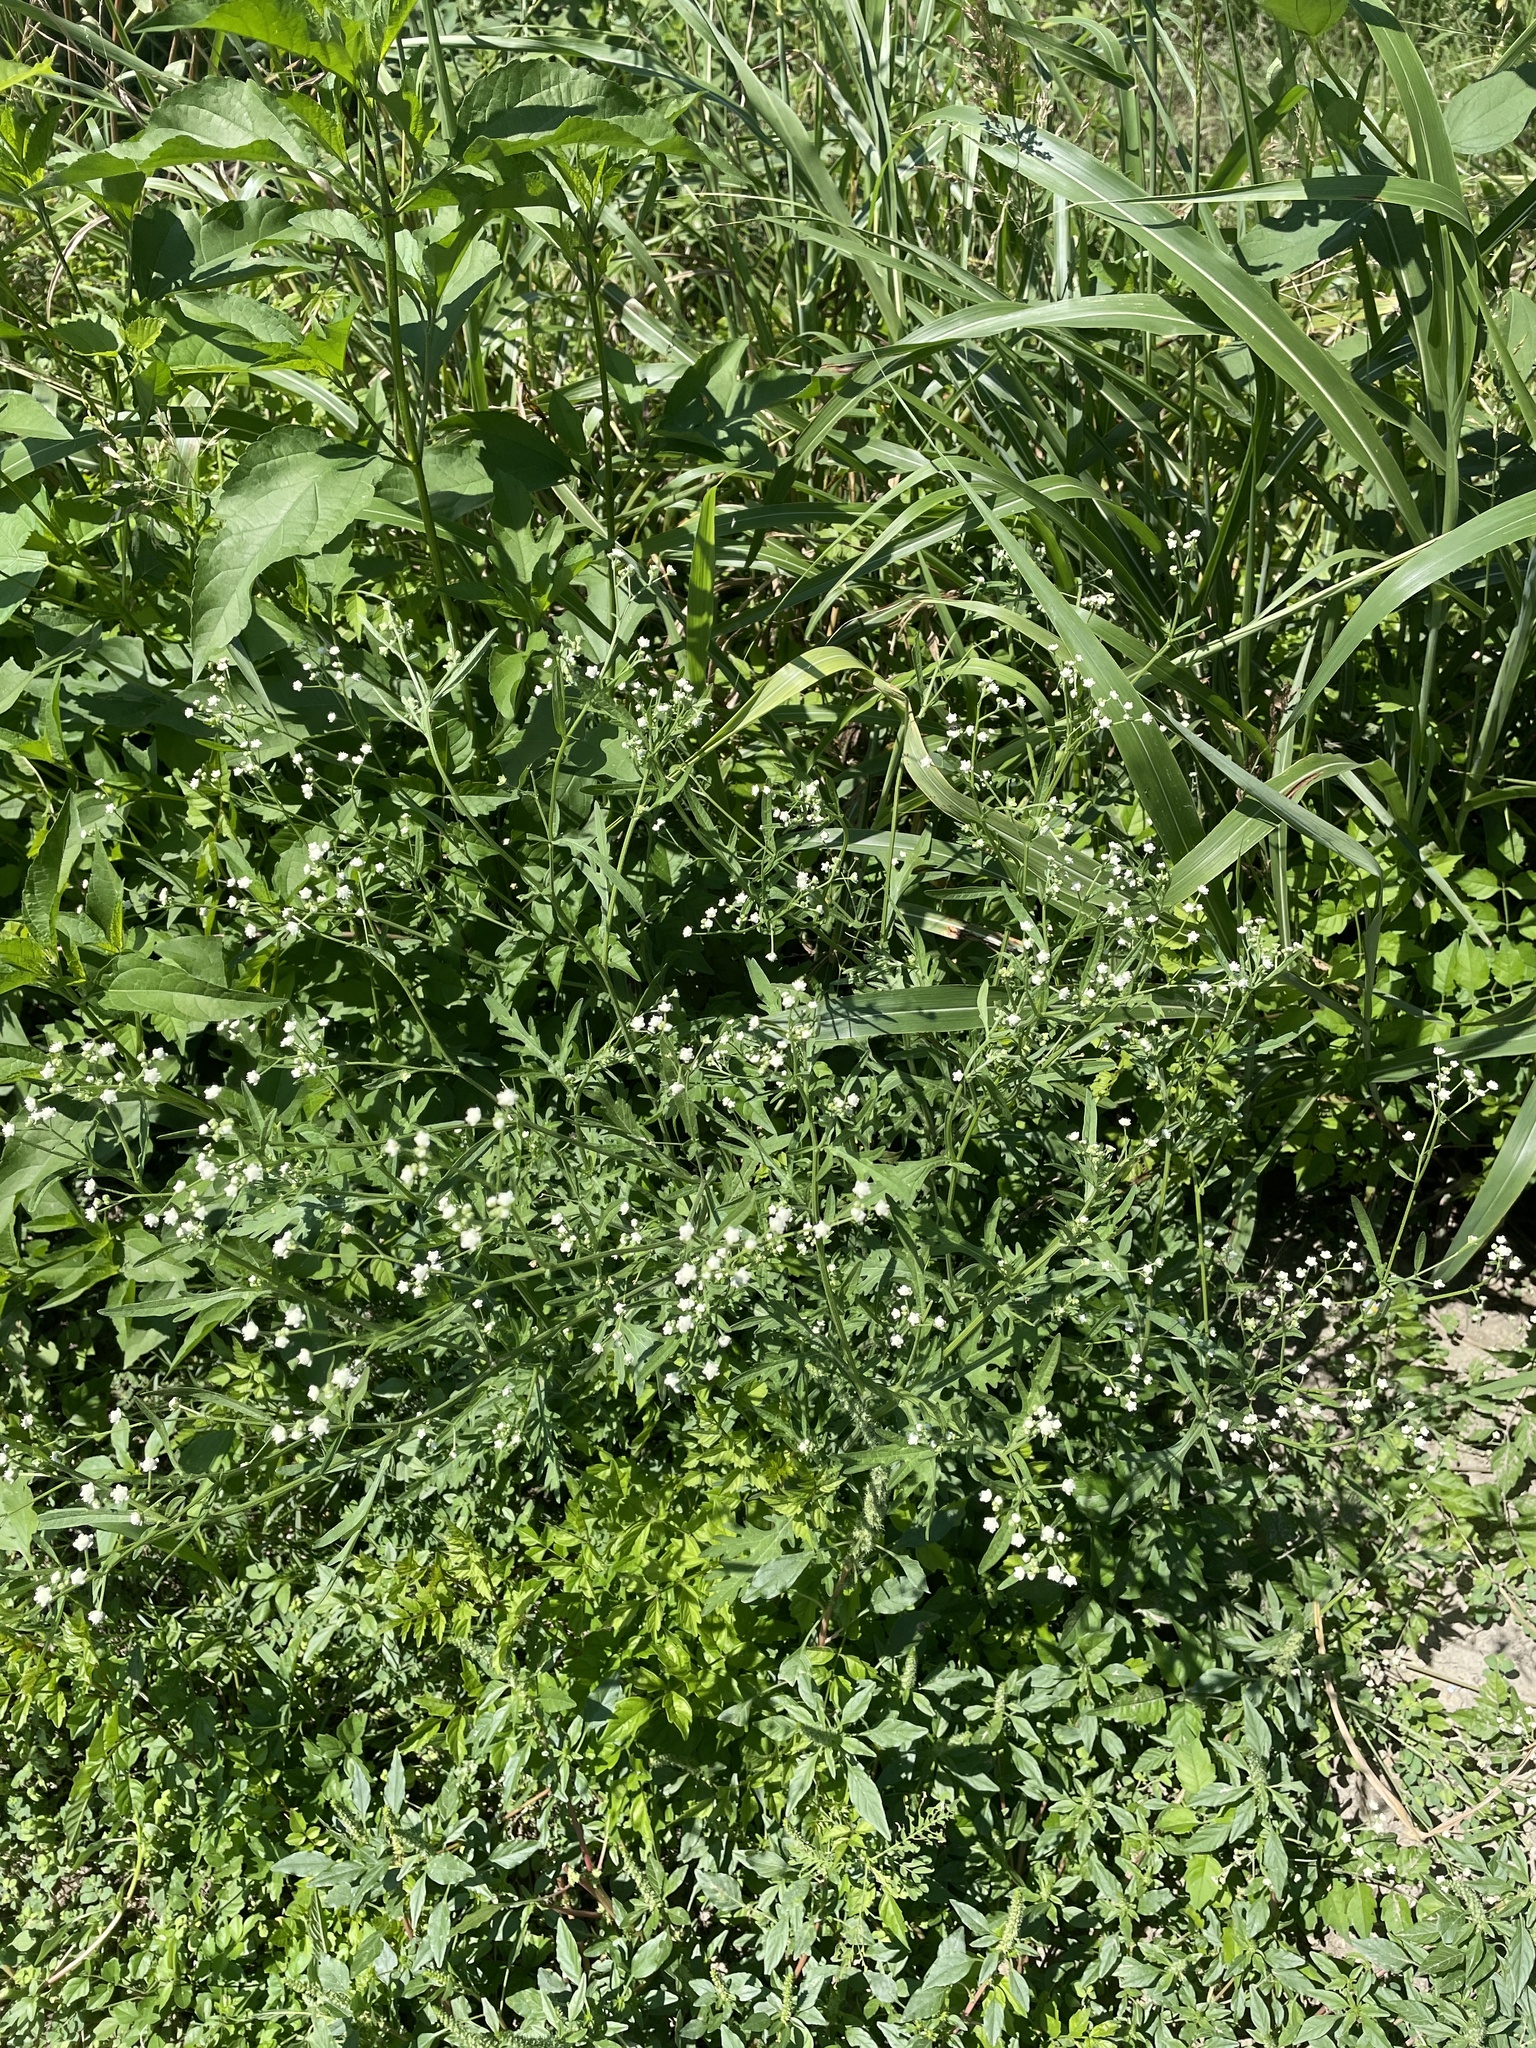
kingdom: Plantae
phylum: Tracheophyta
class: Magnoliopsida
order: Asterales
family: Asteraceae
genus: Parthenium
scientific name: Parthenium hysterophorus
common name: Santa maria feverfew
